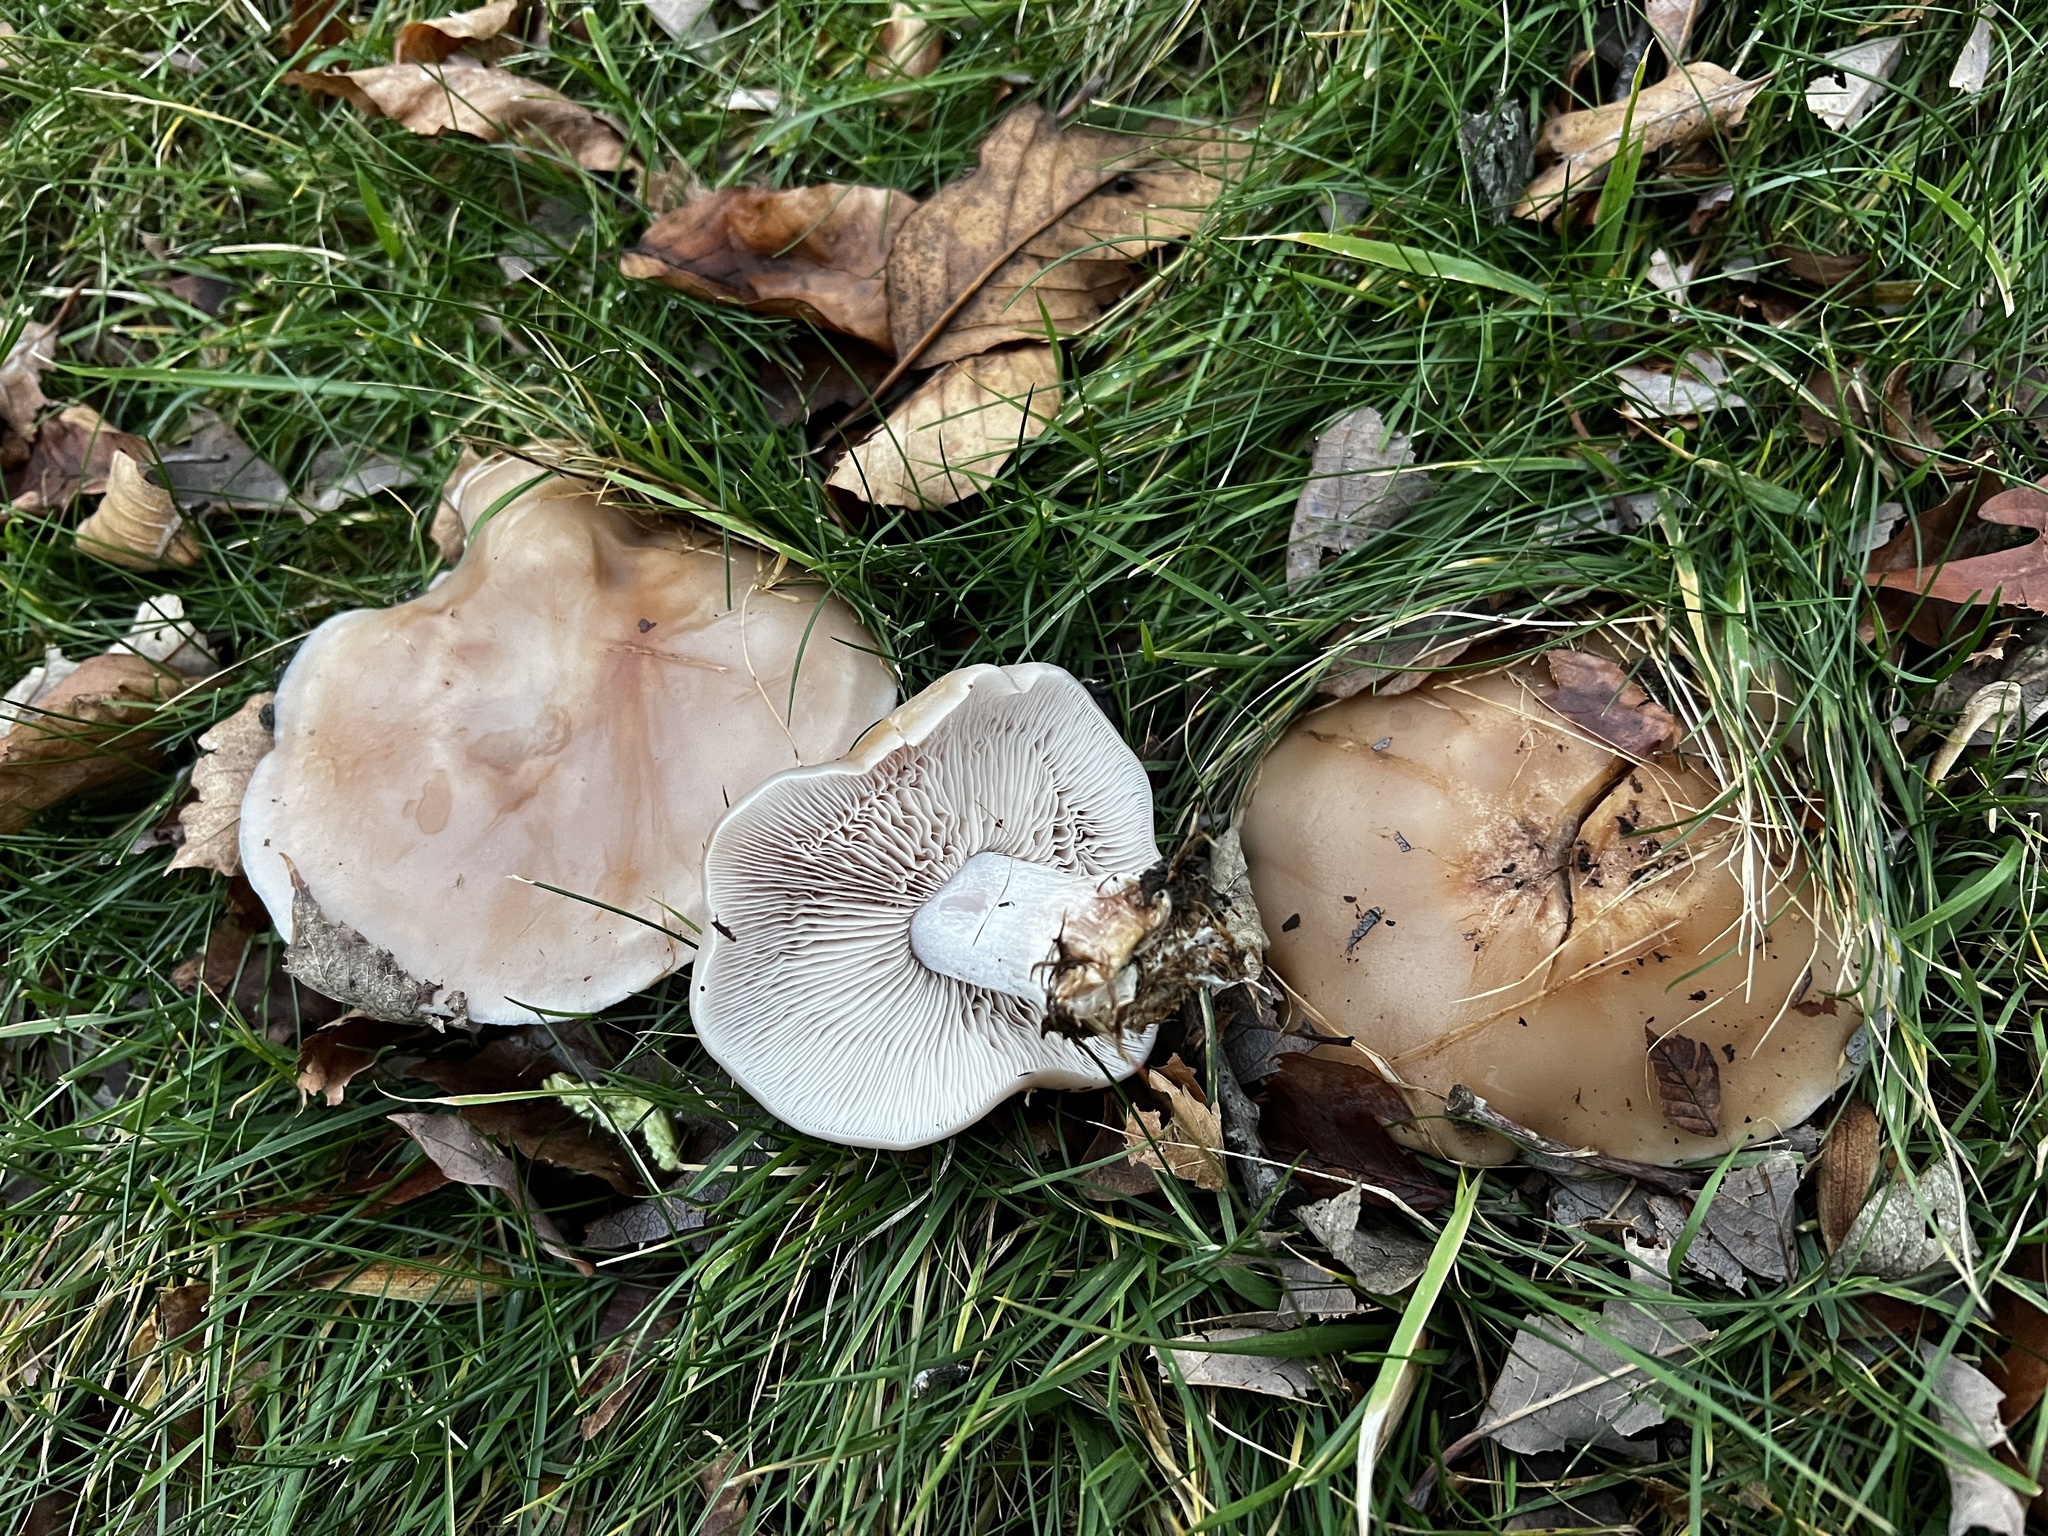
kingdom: Fungi
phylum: Basidiomycota
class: Agaricomycetes
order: Agaricales
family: Tricholomataceae
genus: Collybia
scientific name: Collybia
